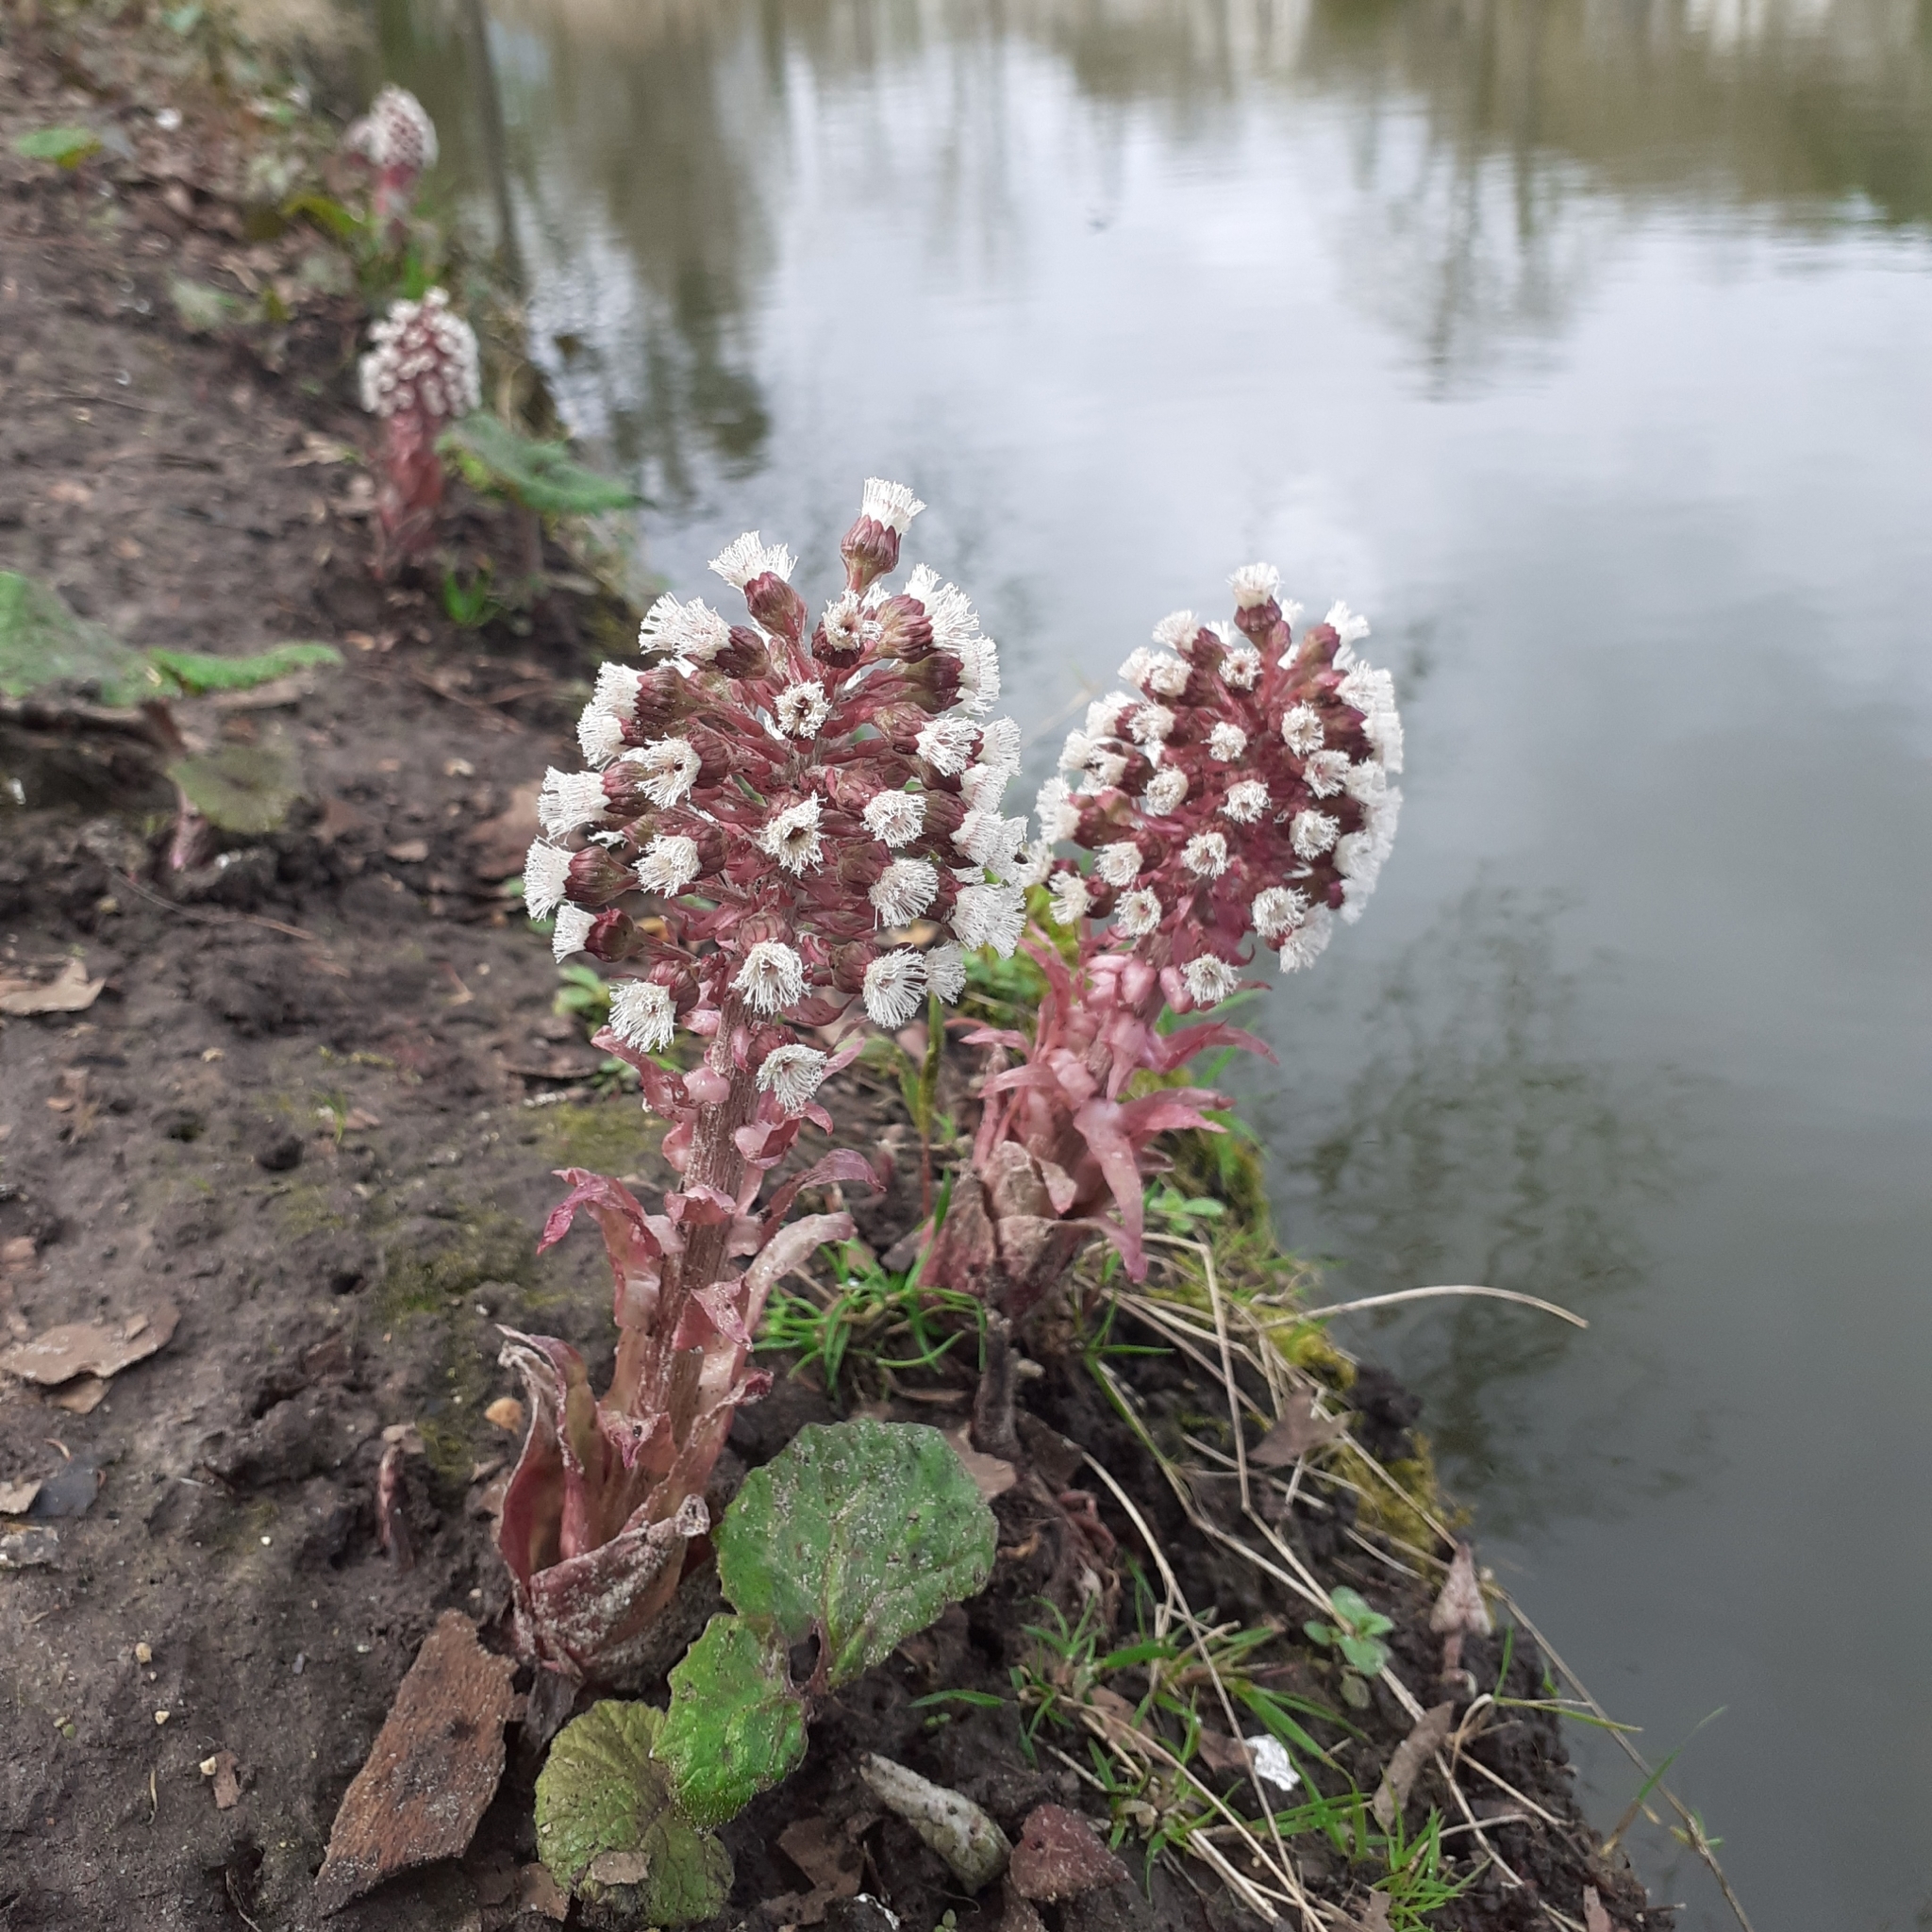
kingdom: Plantae
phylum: Tracheophyta
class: Magnoliopsida
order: Asterales
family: Asteraceae
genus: Petasites
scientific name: Petasites hybridus
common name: Butterbur
